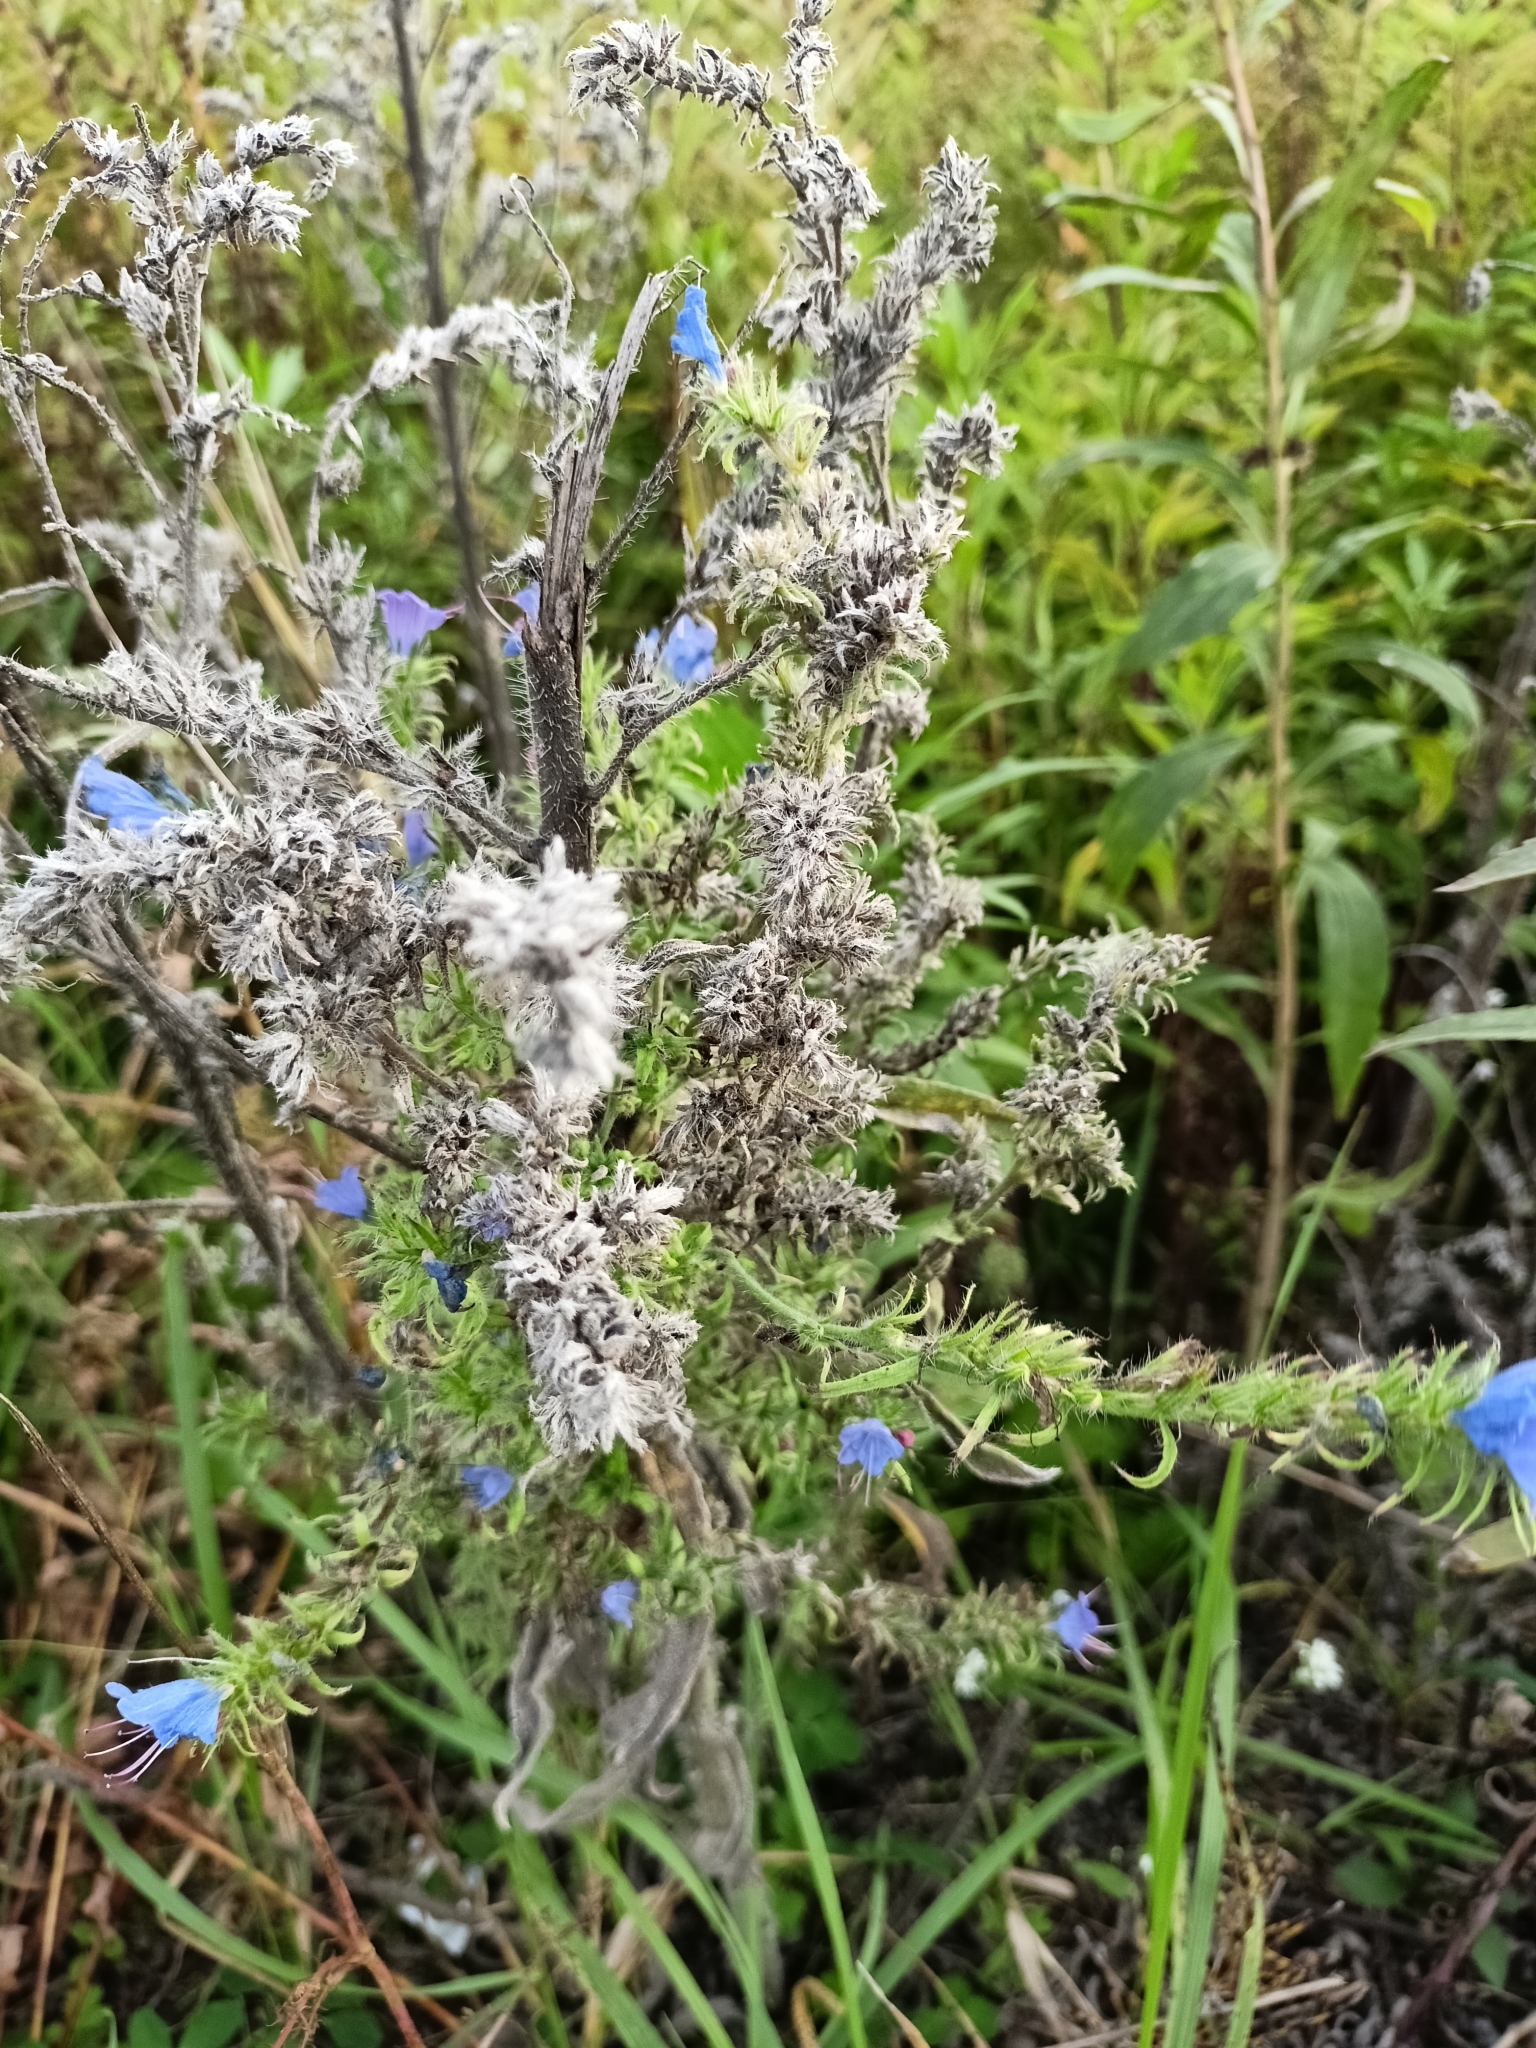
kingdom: Plantae
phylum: Tracheophyta
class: Magnoliopsida
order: Boraginales
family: Boraginaceae
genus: Echium
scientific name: Echium vulgare
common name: Common viper's bugloss
